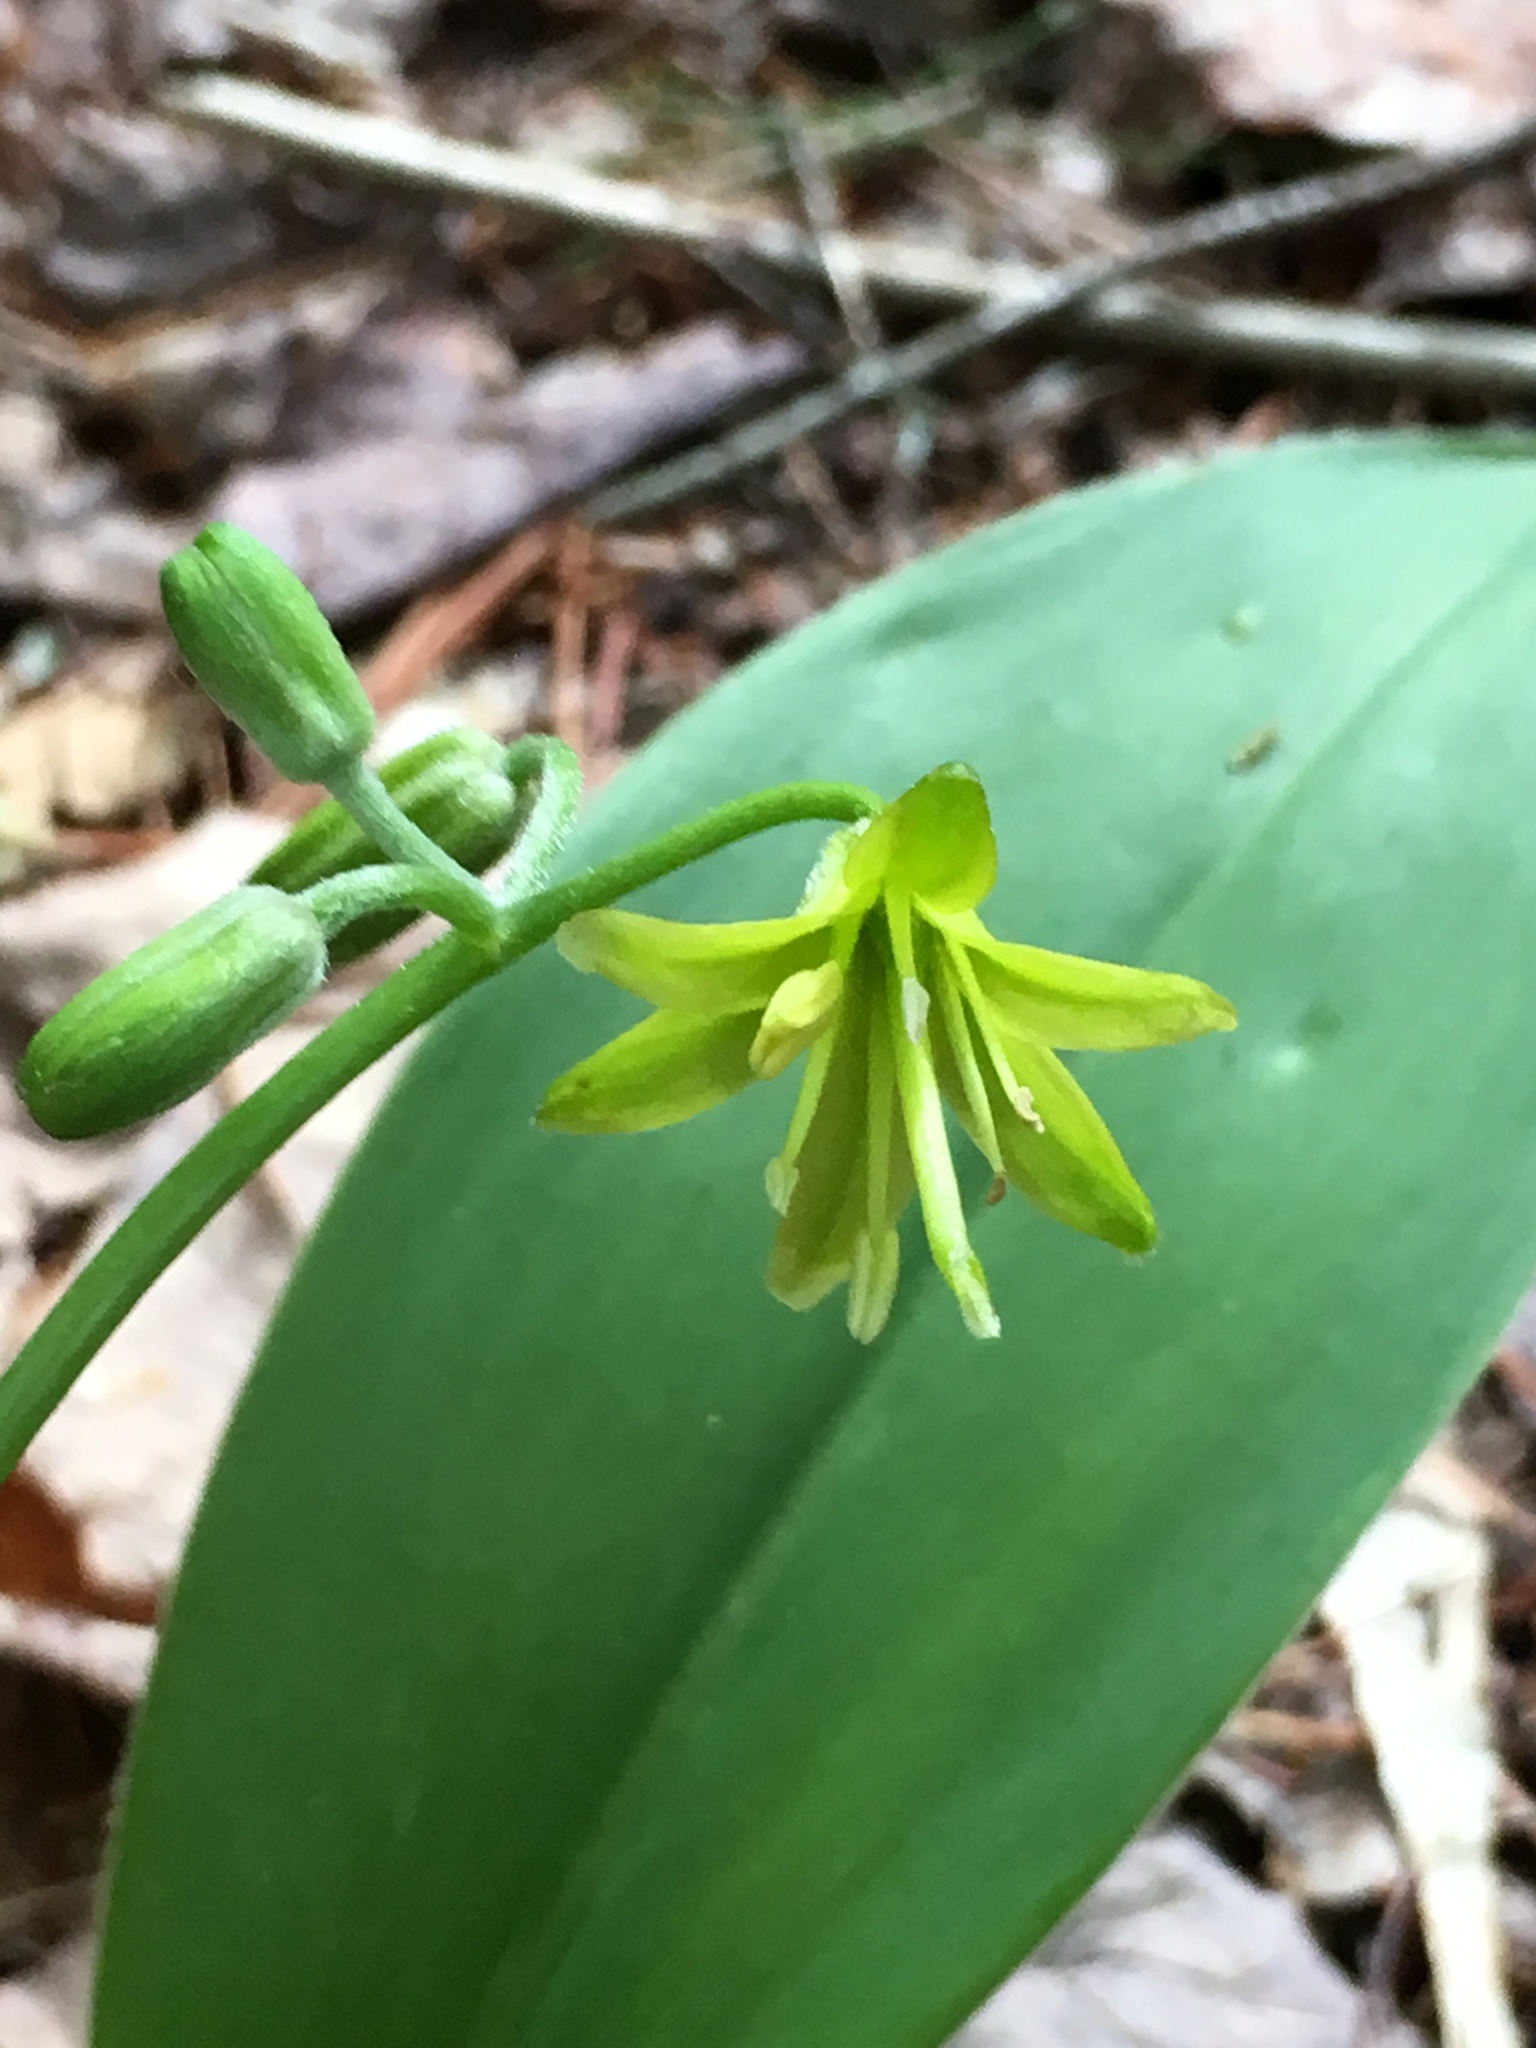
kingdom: Plantae
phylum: Tracheophyta
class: Liliopsida
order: Liliales
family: Liliaceae
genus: Clintonia
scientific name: Clintonia borealis
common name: Yellow clintonia
